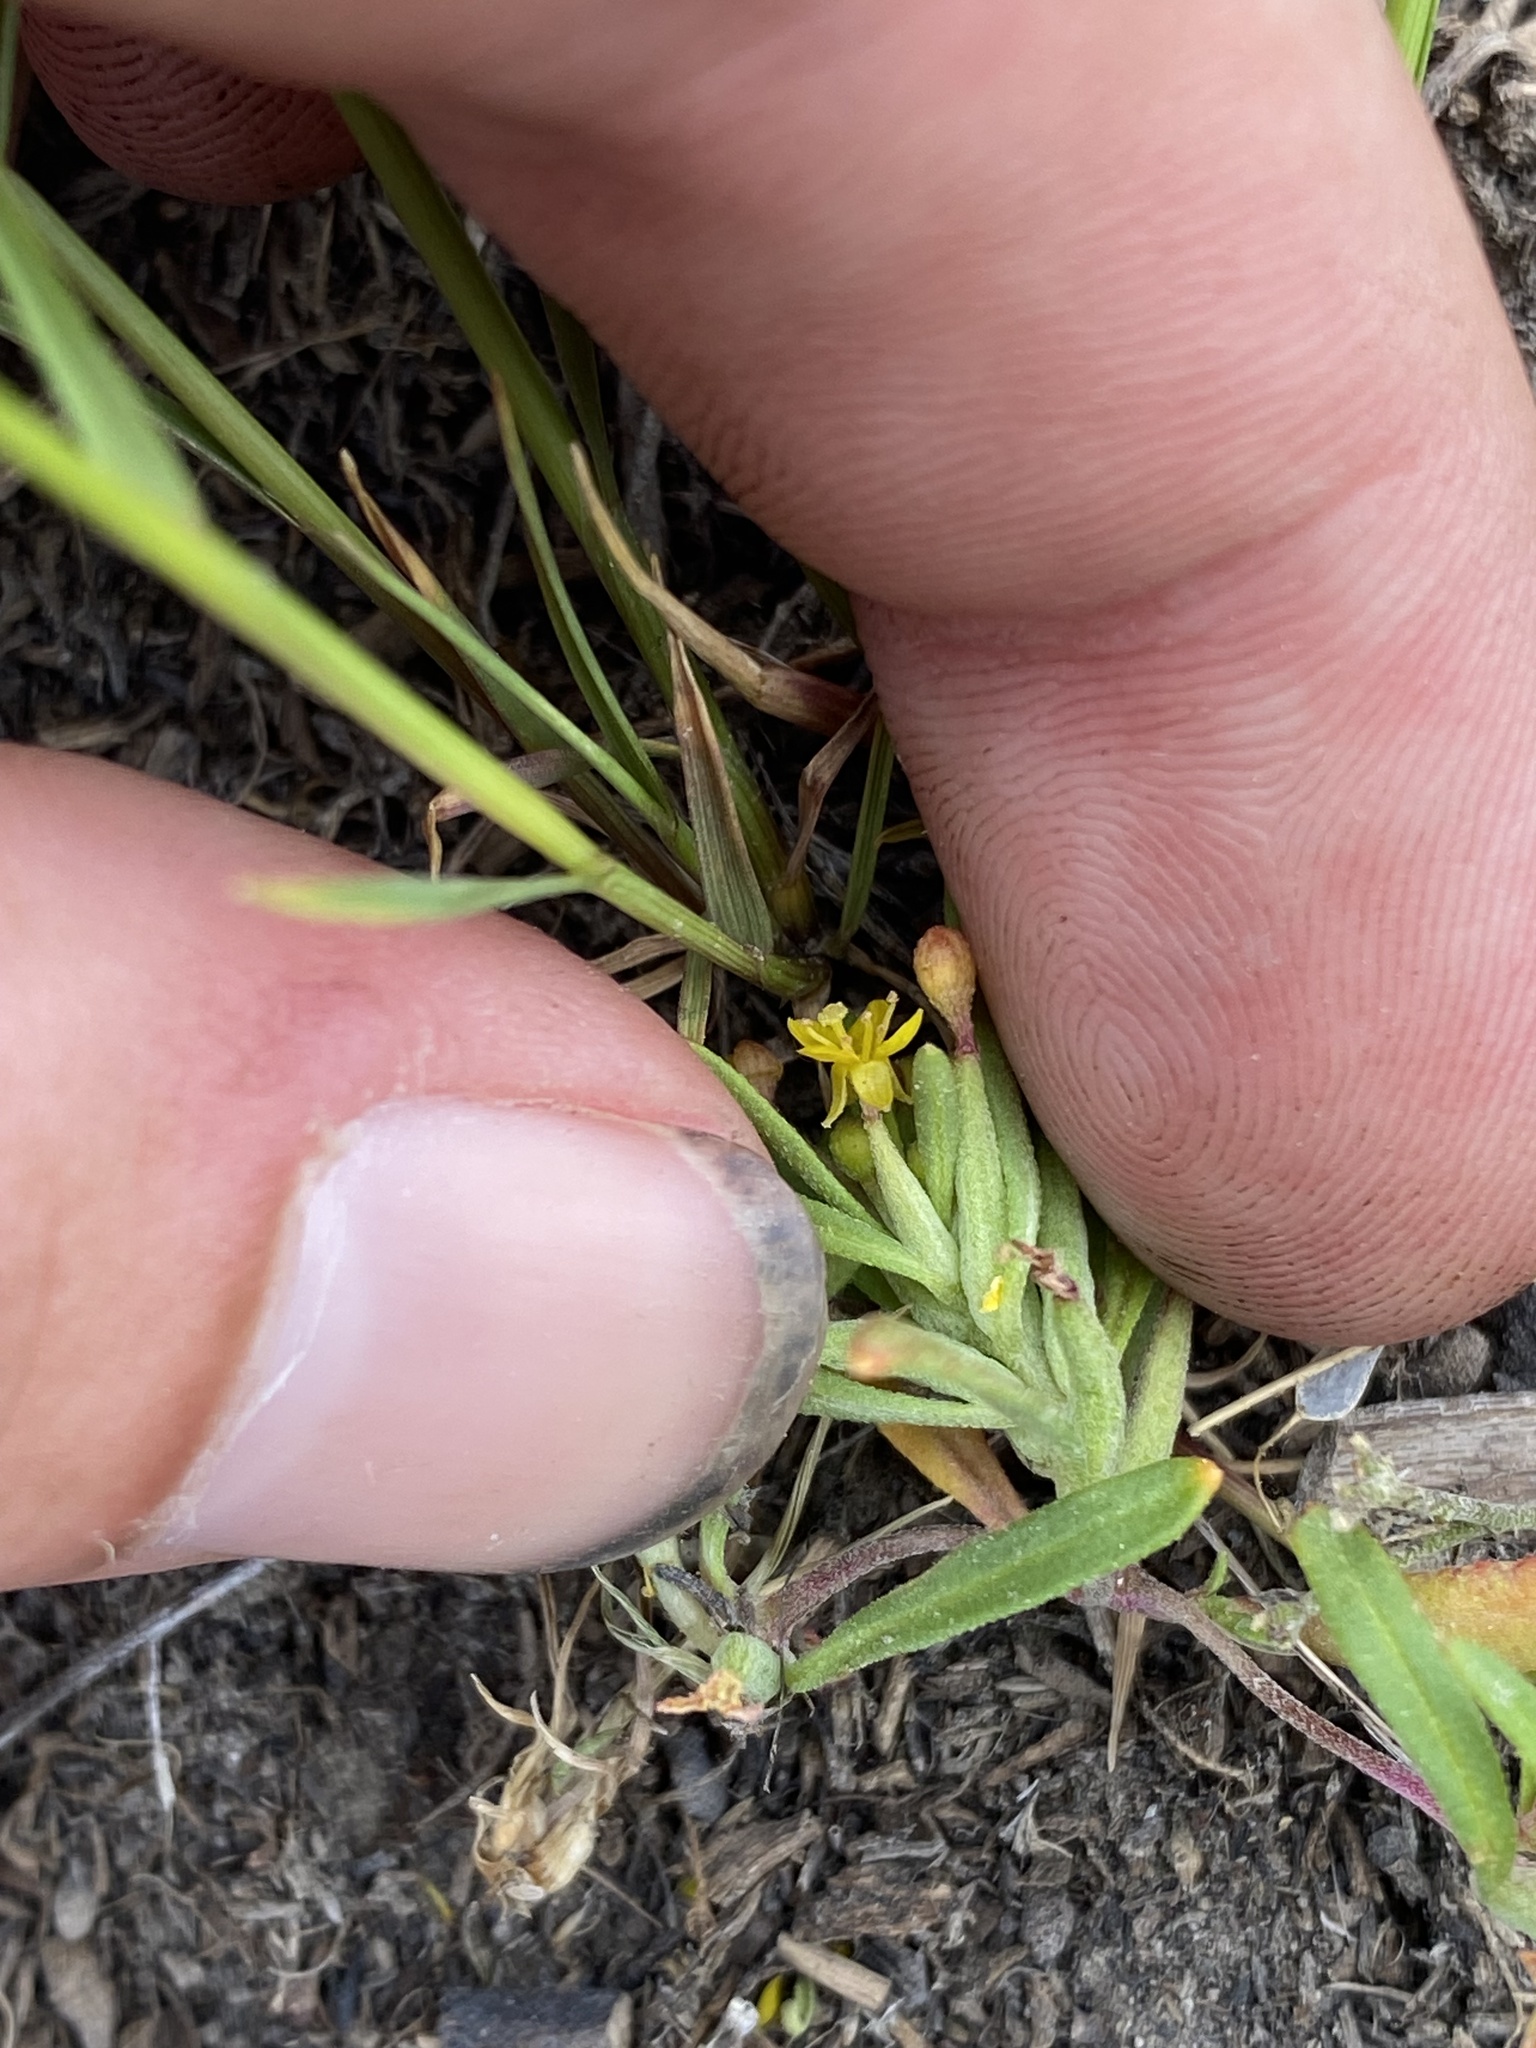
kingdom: Plantae
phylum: Tracheophyta
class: Magnoliopsida
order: Myrtales
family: Onagraceae
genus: Camissonia
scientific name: Camissonia contorta
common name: Contorted suncup
